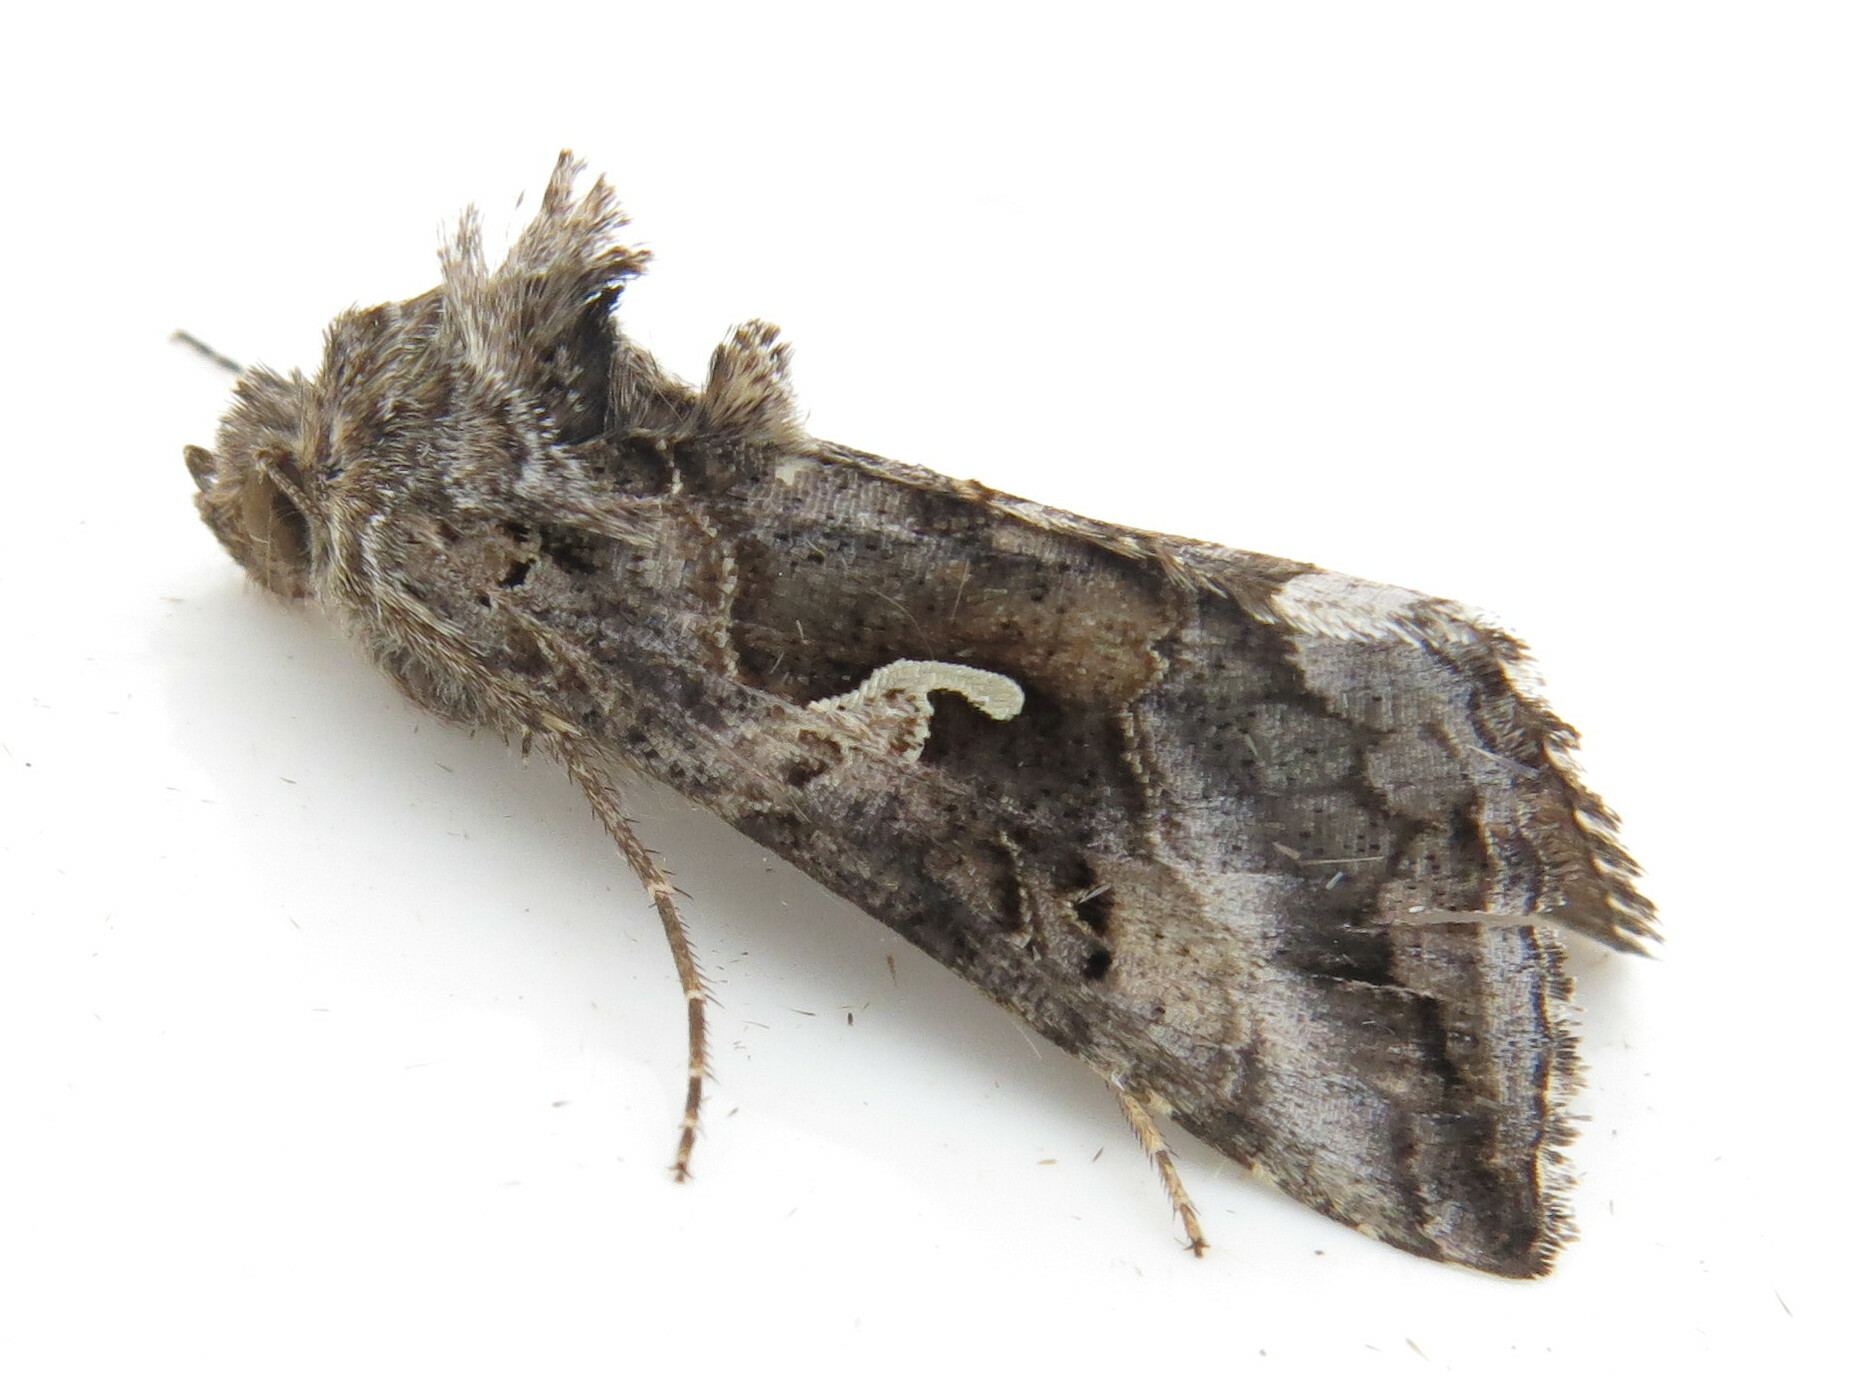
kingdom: Animalia
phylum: Arthropoda
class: Insecta
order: Lepidoptera
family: Noctuidae
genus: Autographa
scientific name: Autographa gamma
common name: Silver y
